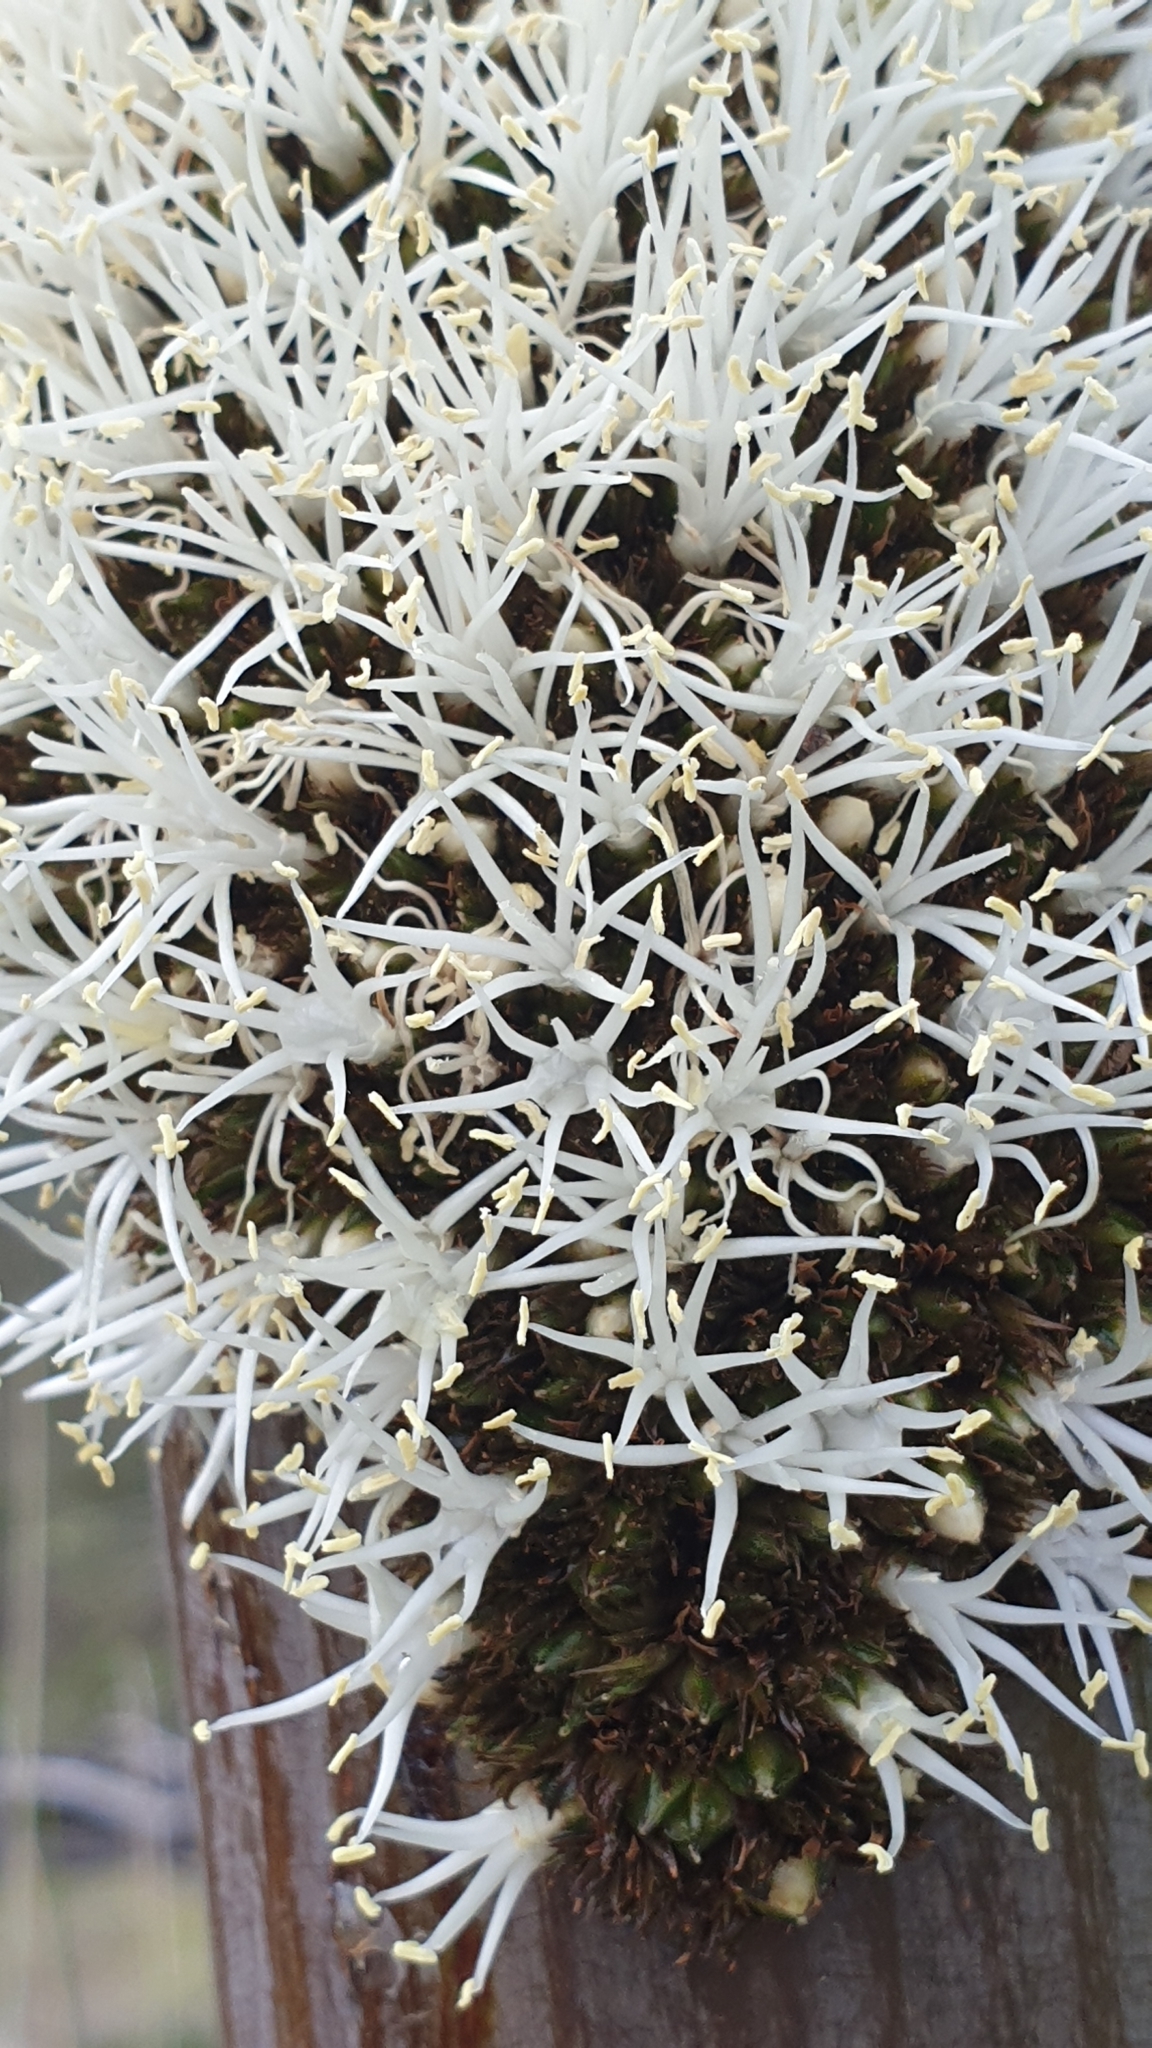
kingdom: Plantae
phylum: Tracheophyta
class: Liliopsida
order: Asparagales
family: Asphodelaceae
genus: Xanthorrhoea
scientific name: Xanthorrhoea semiplana
